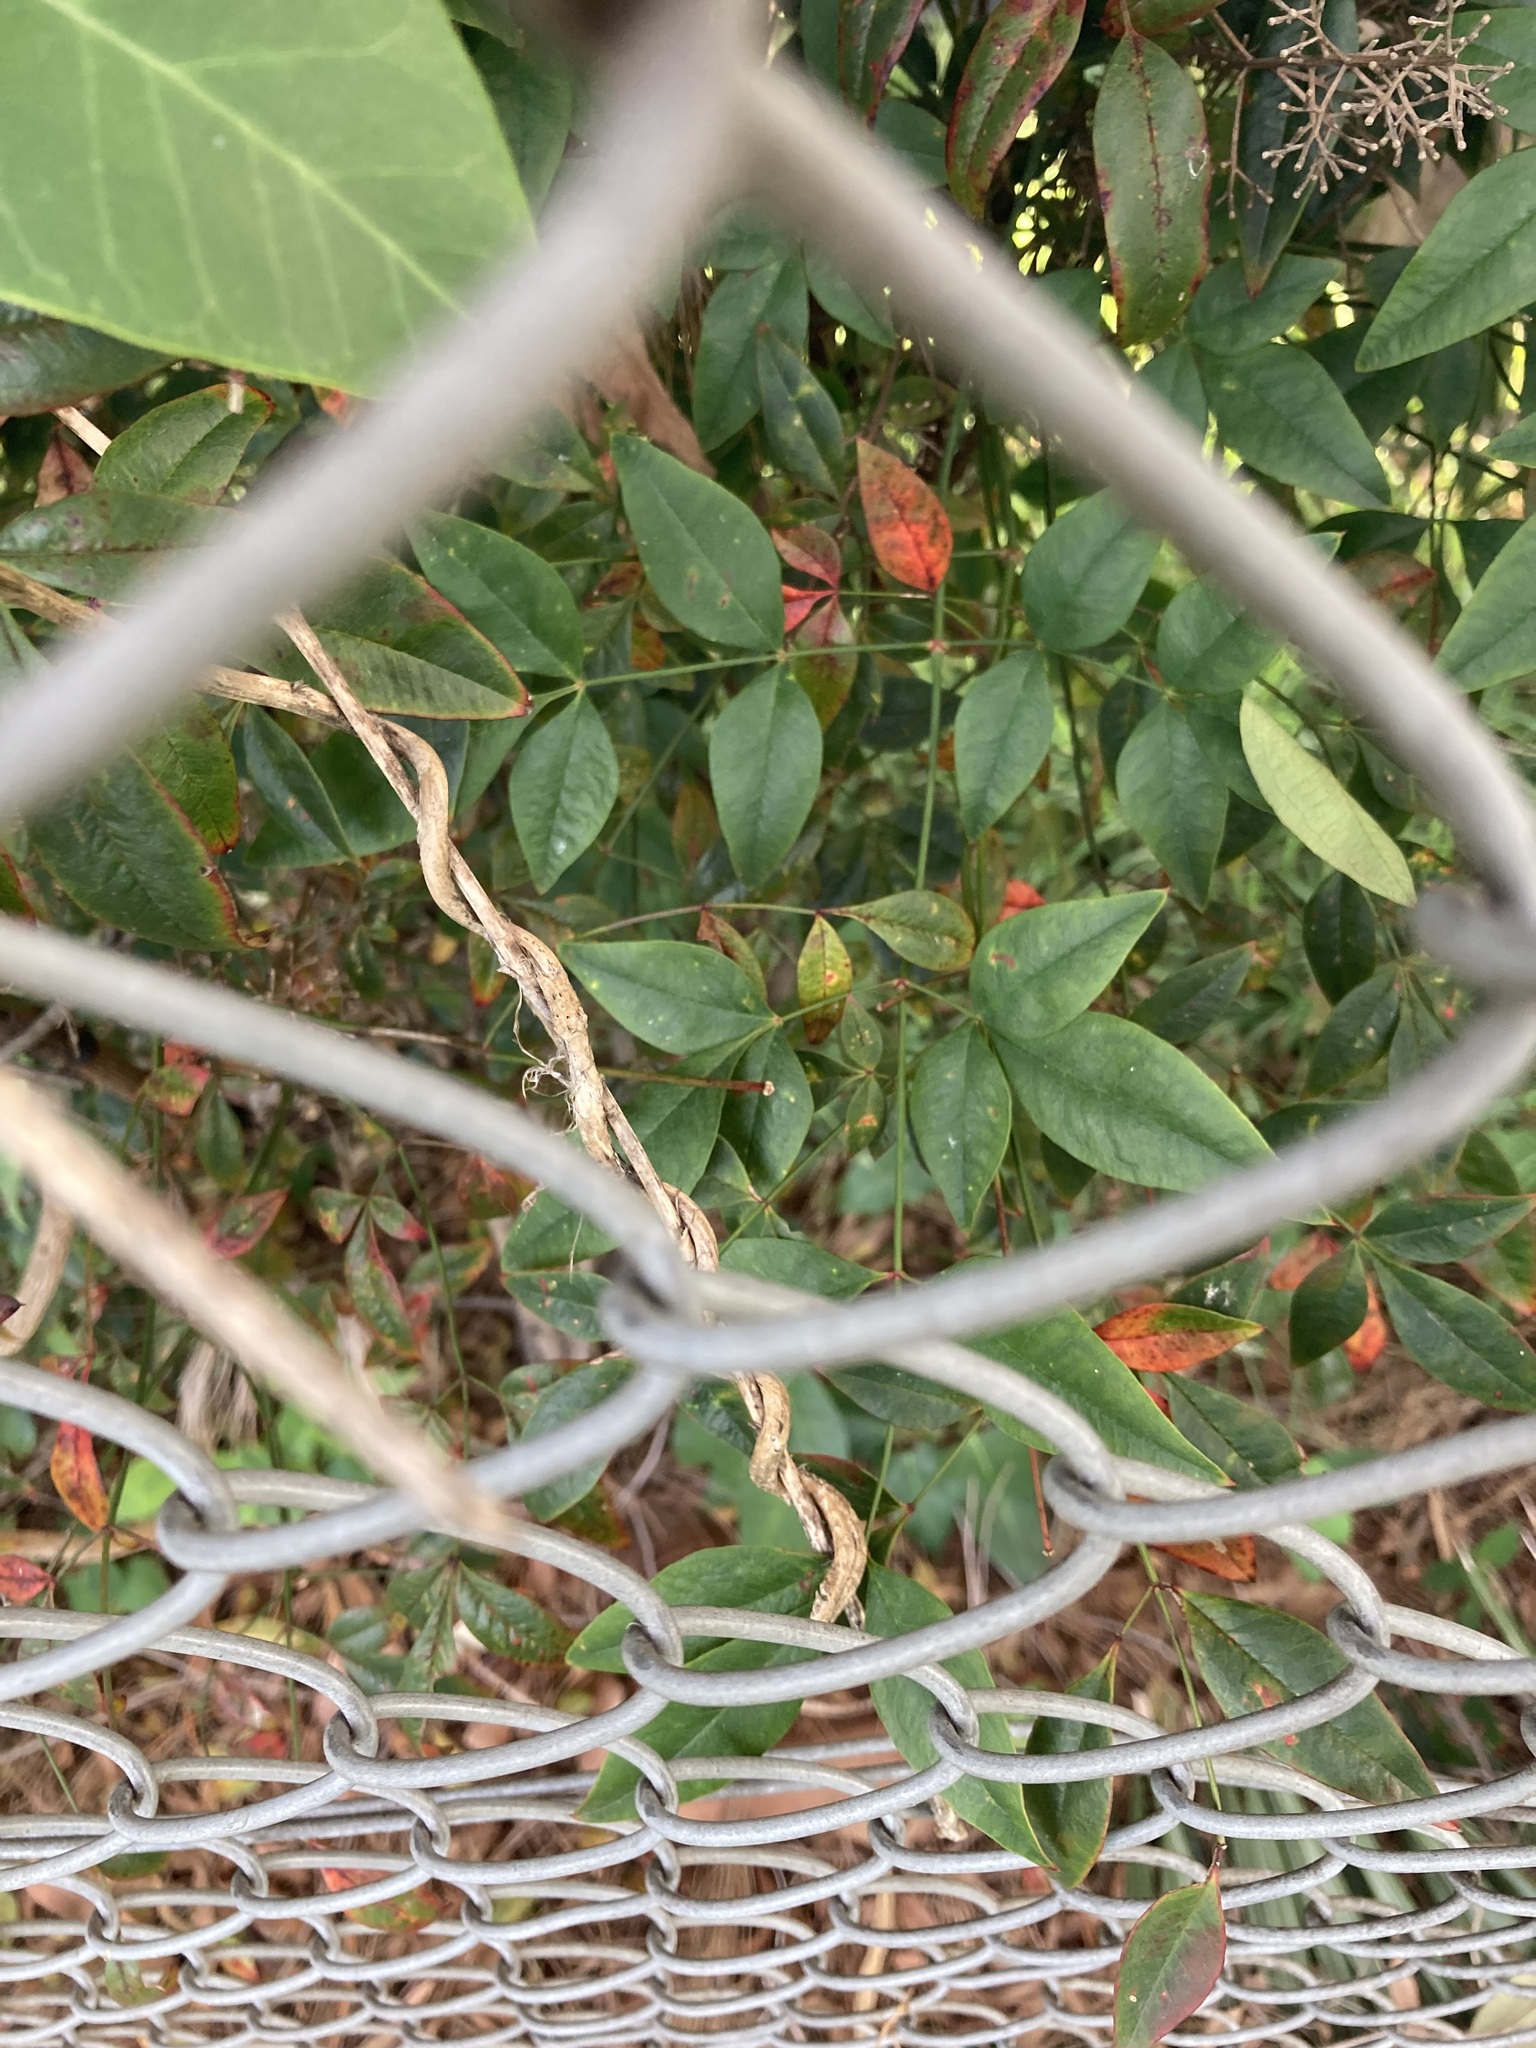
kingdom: Plantae
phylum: Tracheophyta
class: Magnoliopsida
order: Ranunculales
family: Berberidaceae
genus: Nandina
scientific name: Nandina domestica
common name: Sacred bamboo
